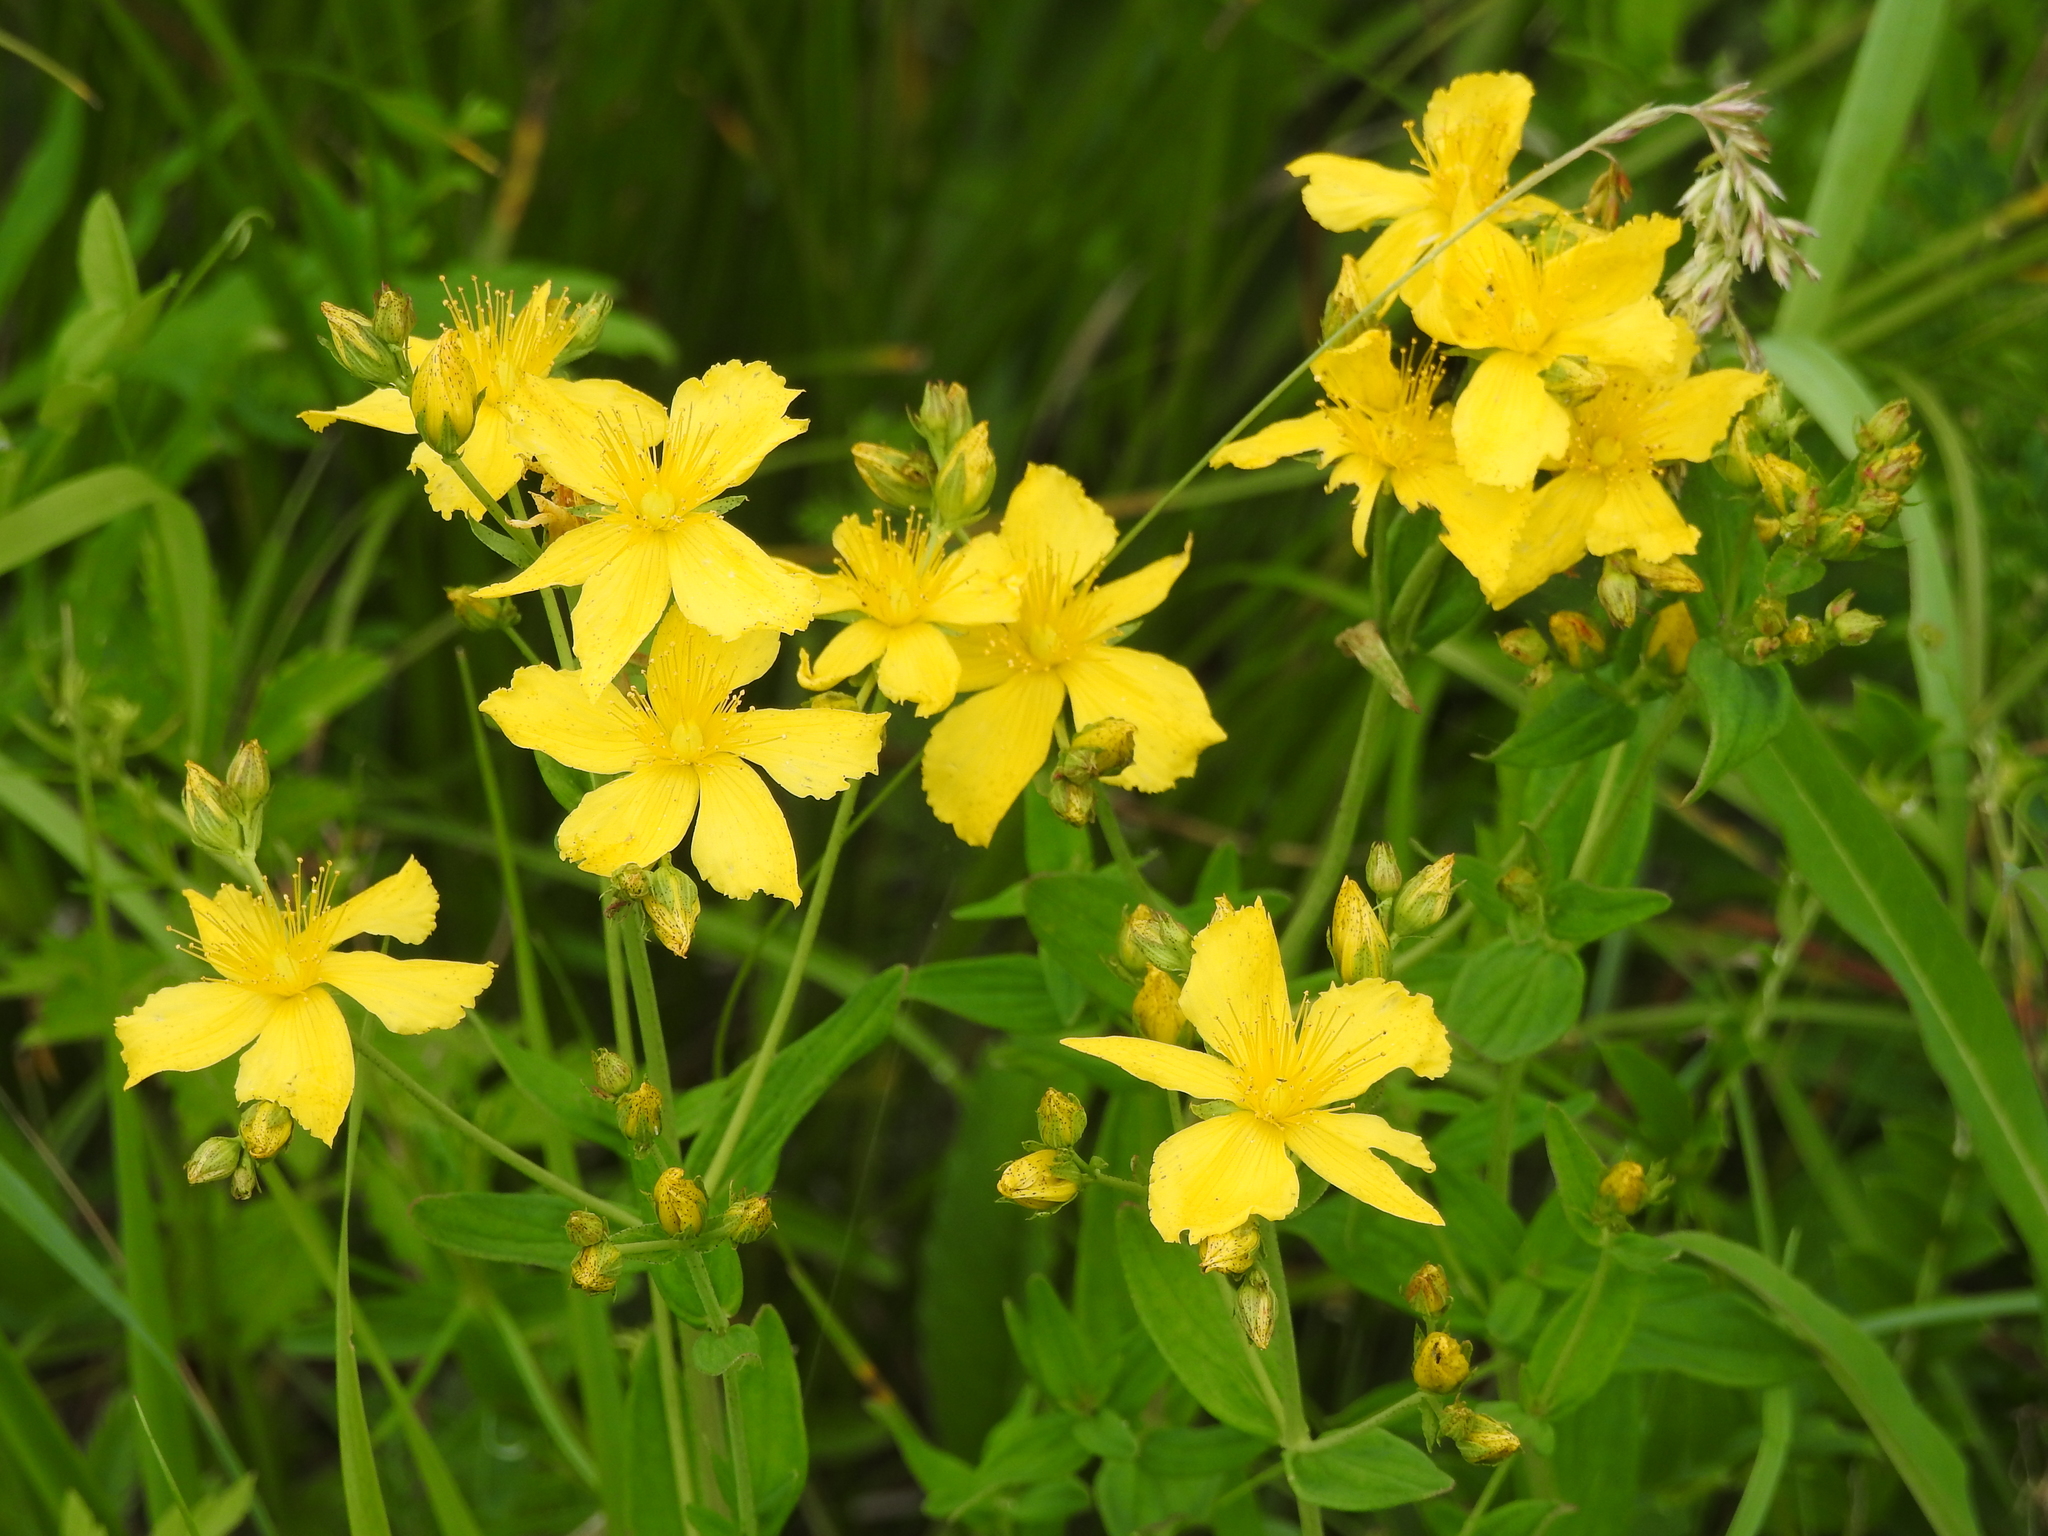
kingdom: Plantae
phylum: Tracheophyta
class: Magnoliopsida
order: Malpighiales
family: Hypericaceae
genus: Hypericum
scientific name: Hypericum attenuatum
